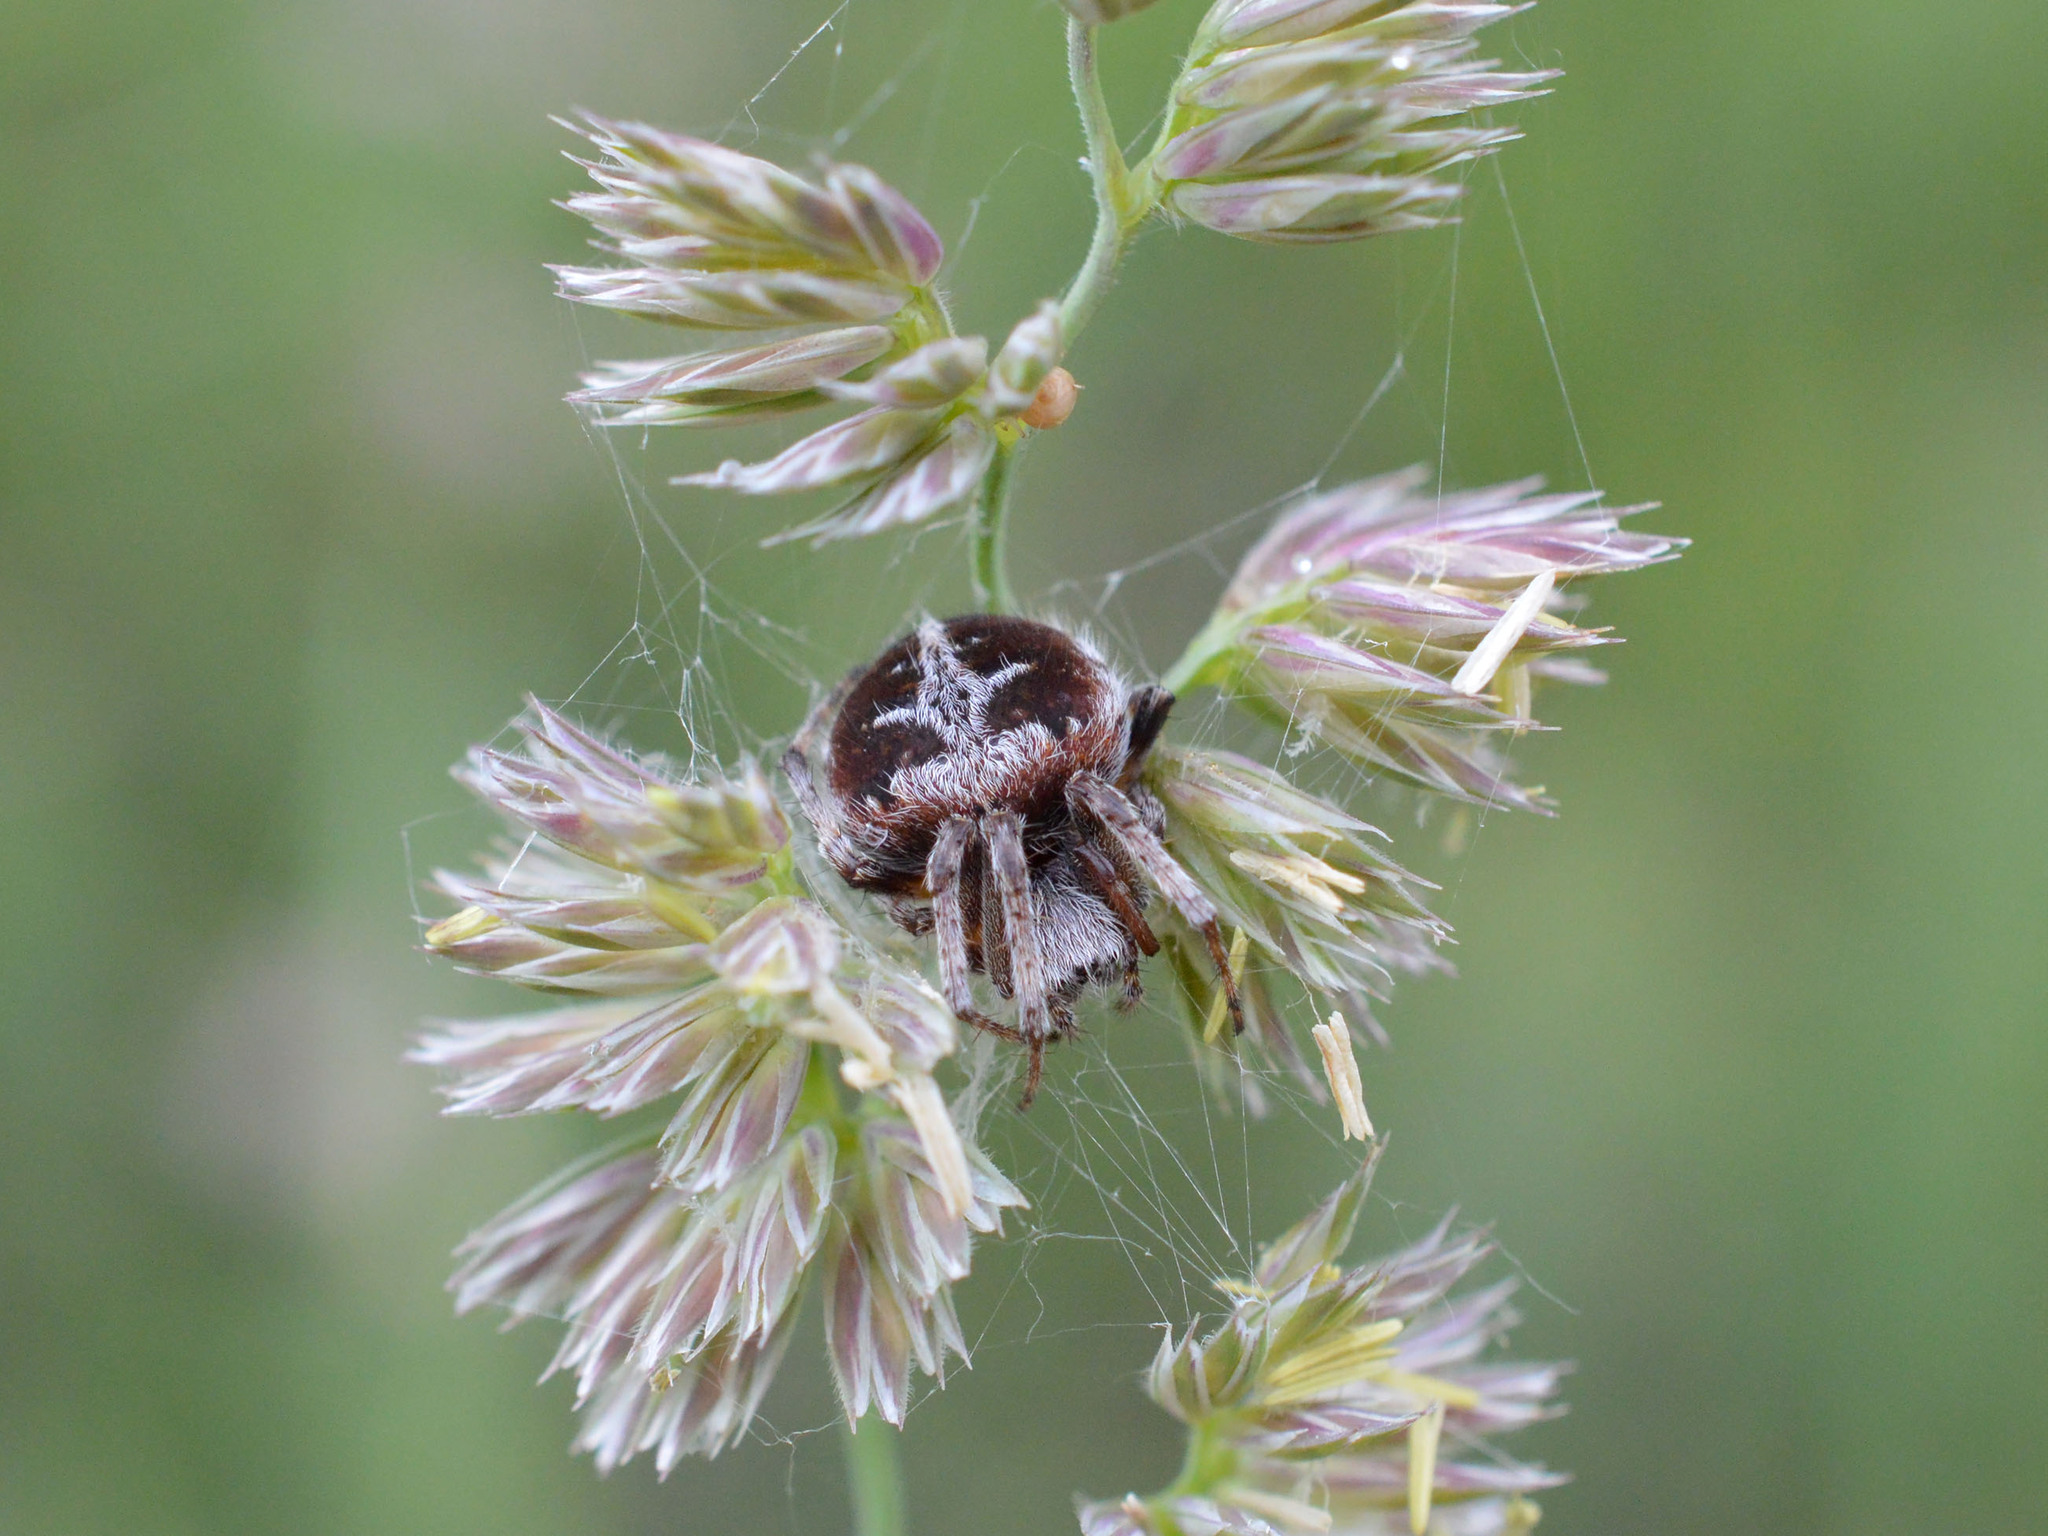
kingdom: Animalia
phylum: Arthropoda
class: Arachnida
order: Araneae
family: Araneidae
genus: Agalenatea
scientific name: Agalenatea redii
